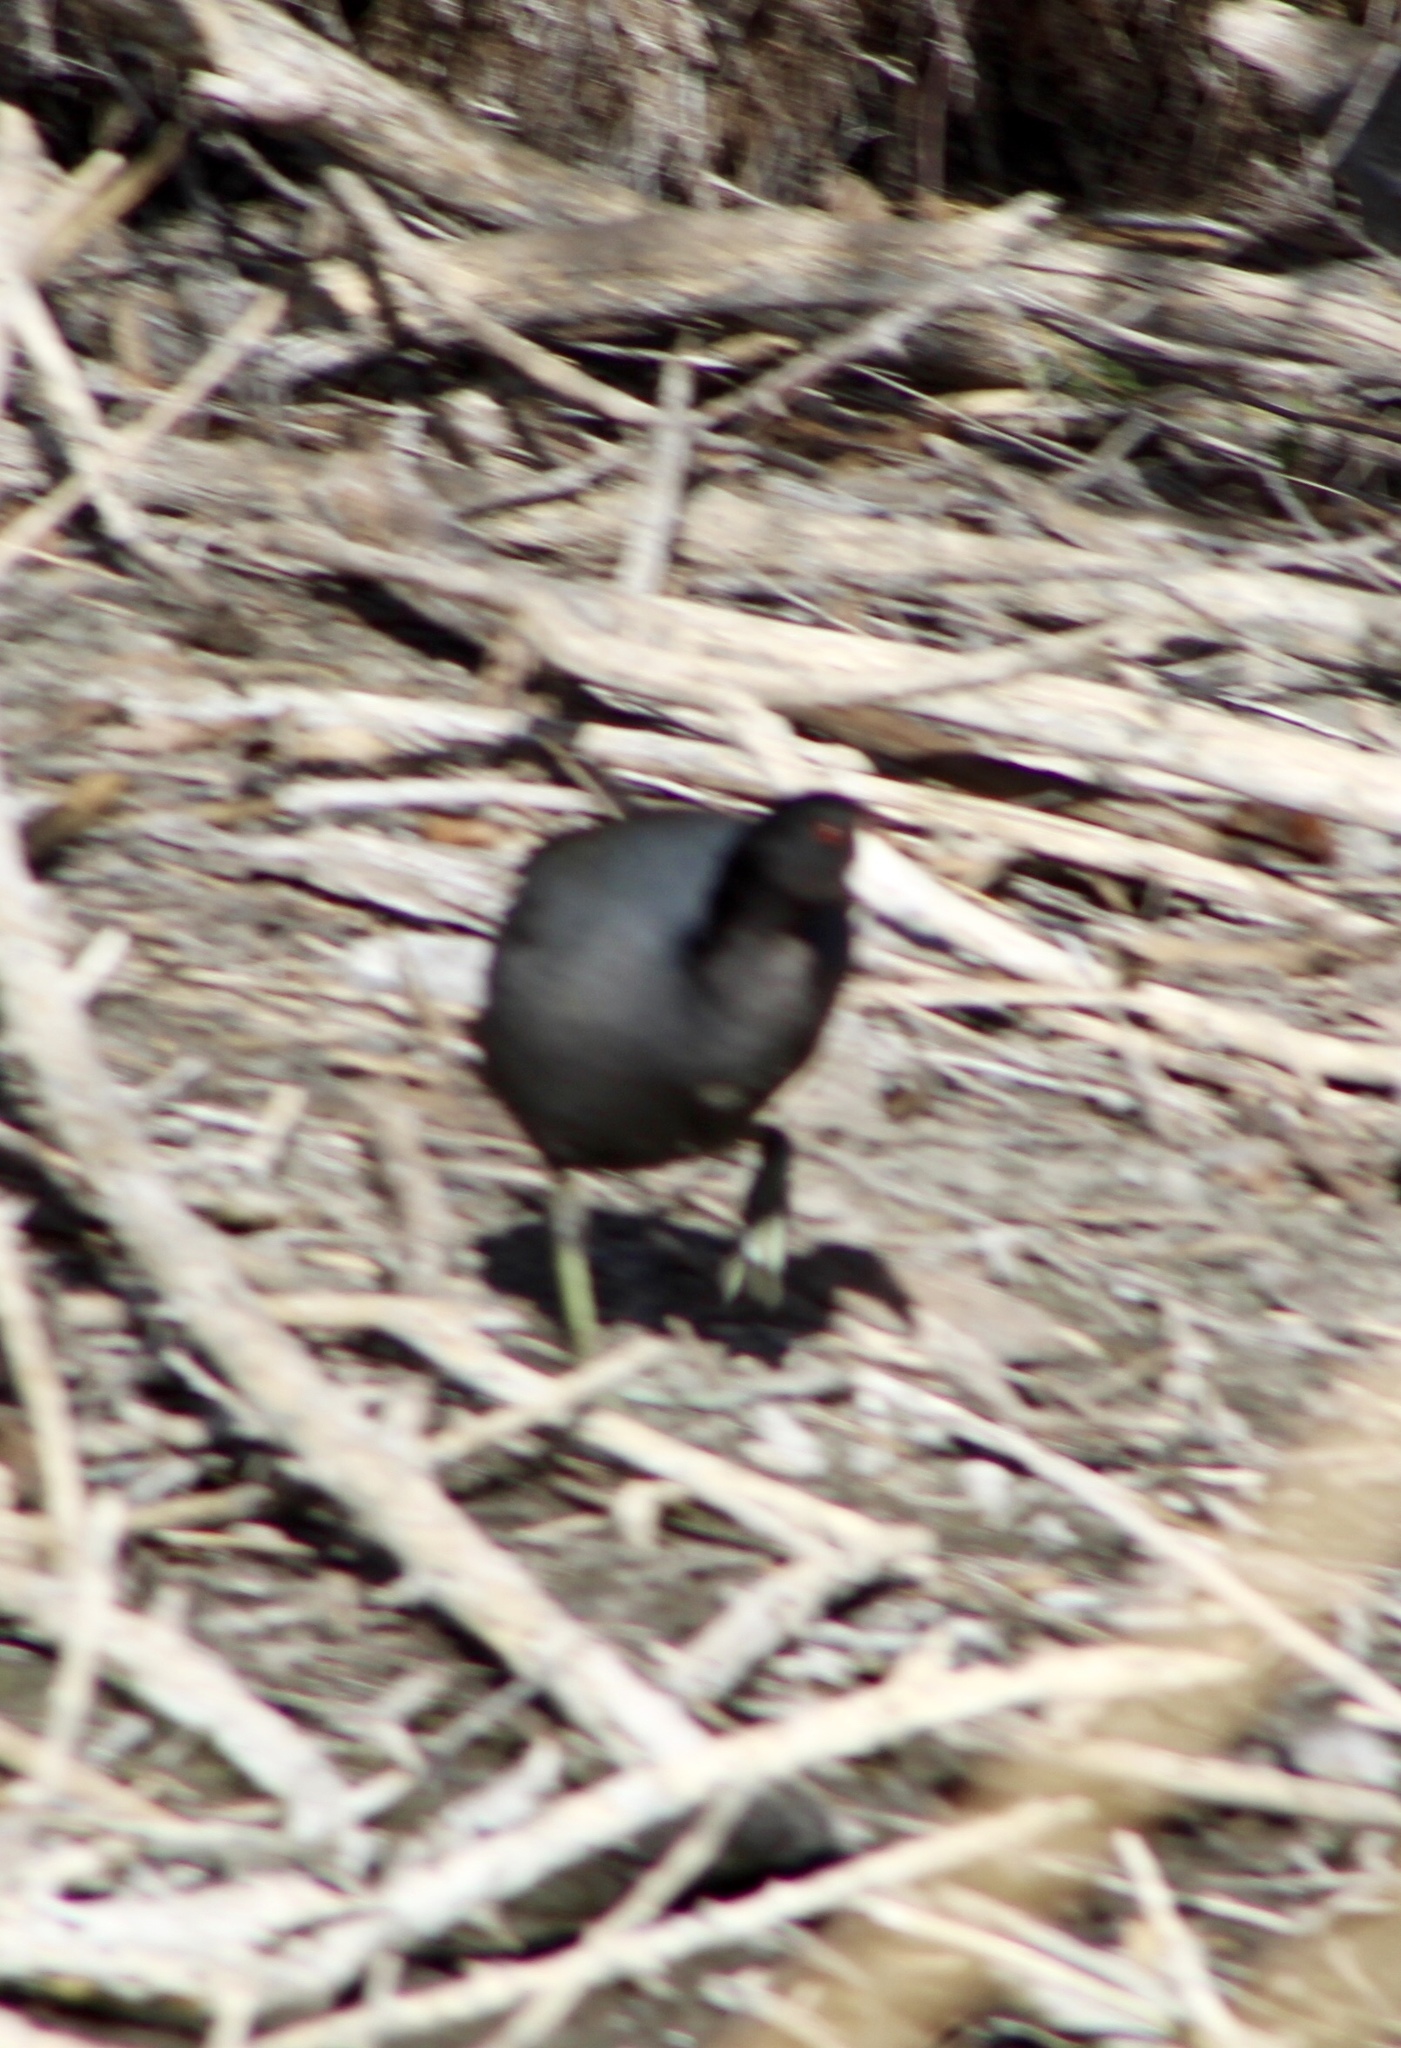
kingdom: Animalia
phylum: Chordata
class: Aves
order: Gruiformes
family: Rallidae
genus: Fulica
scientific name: Fulica americana
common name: American coot
